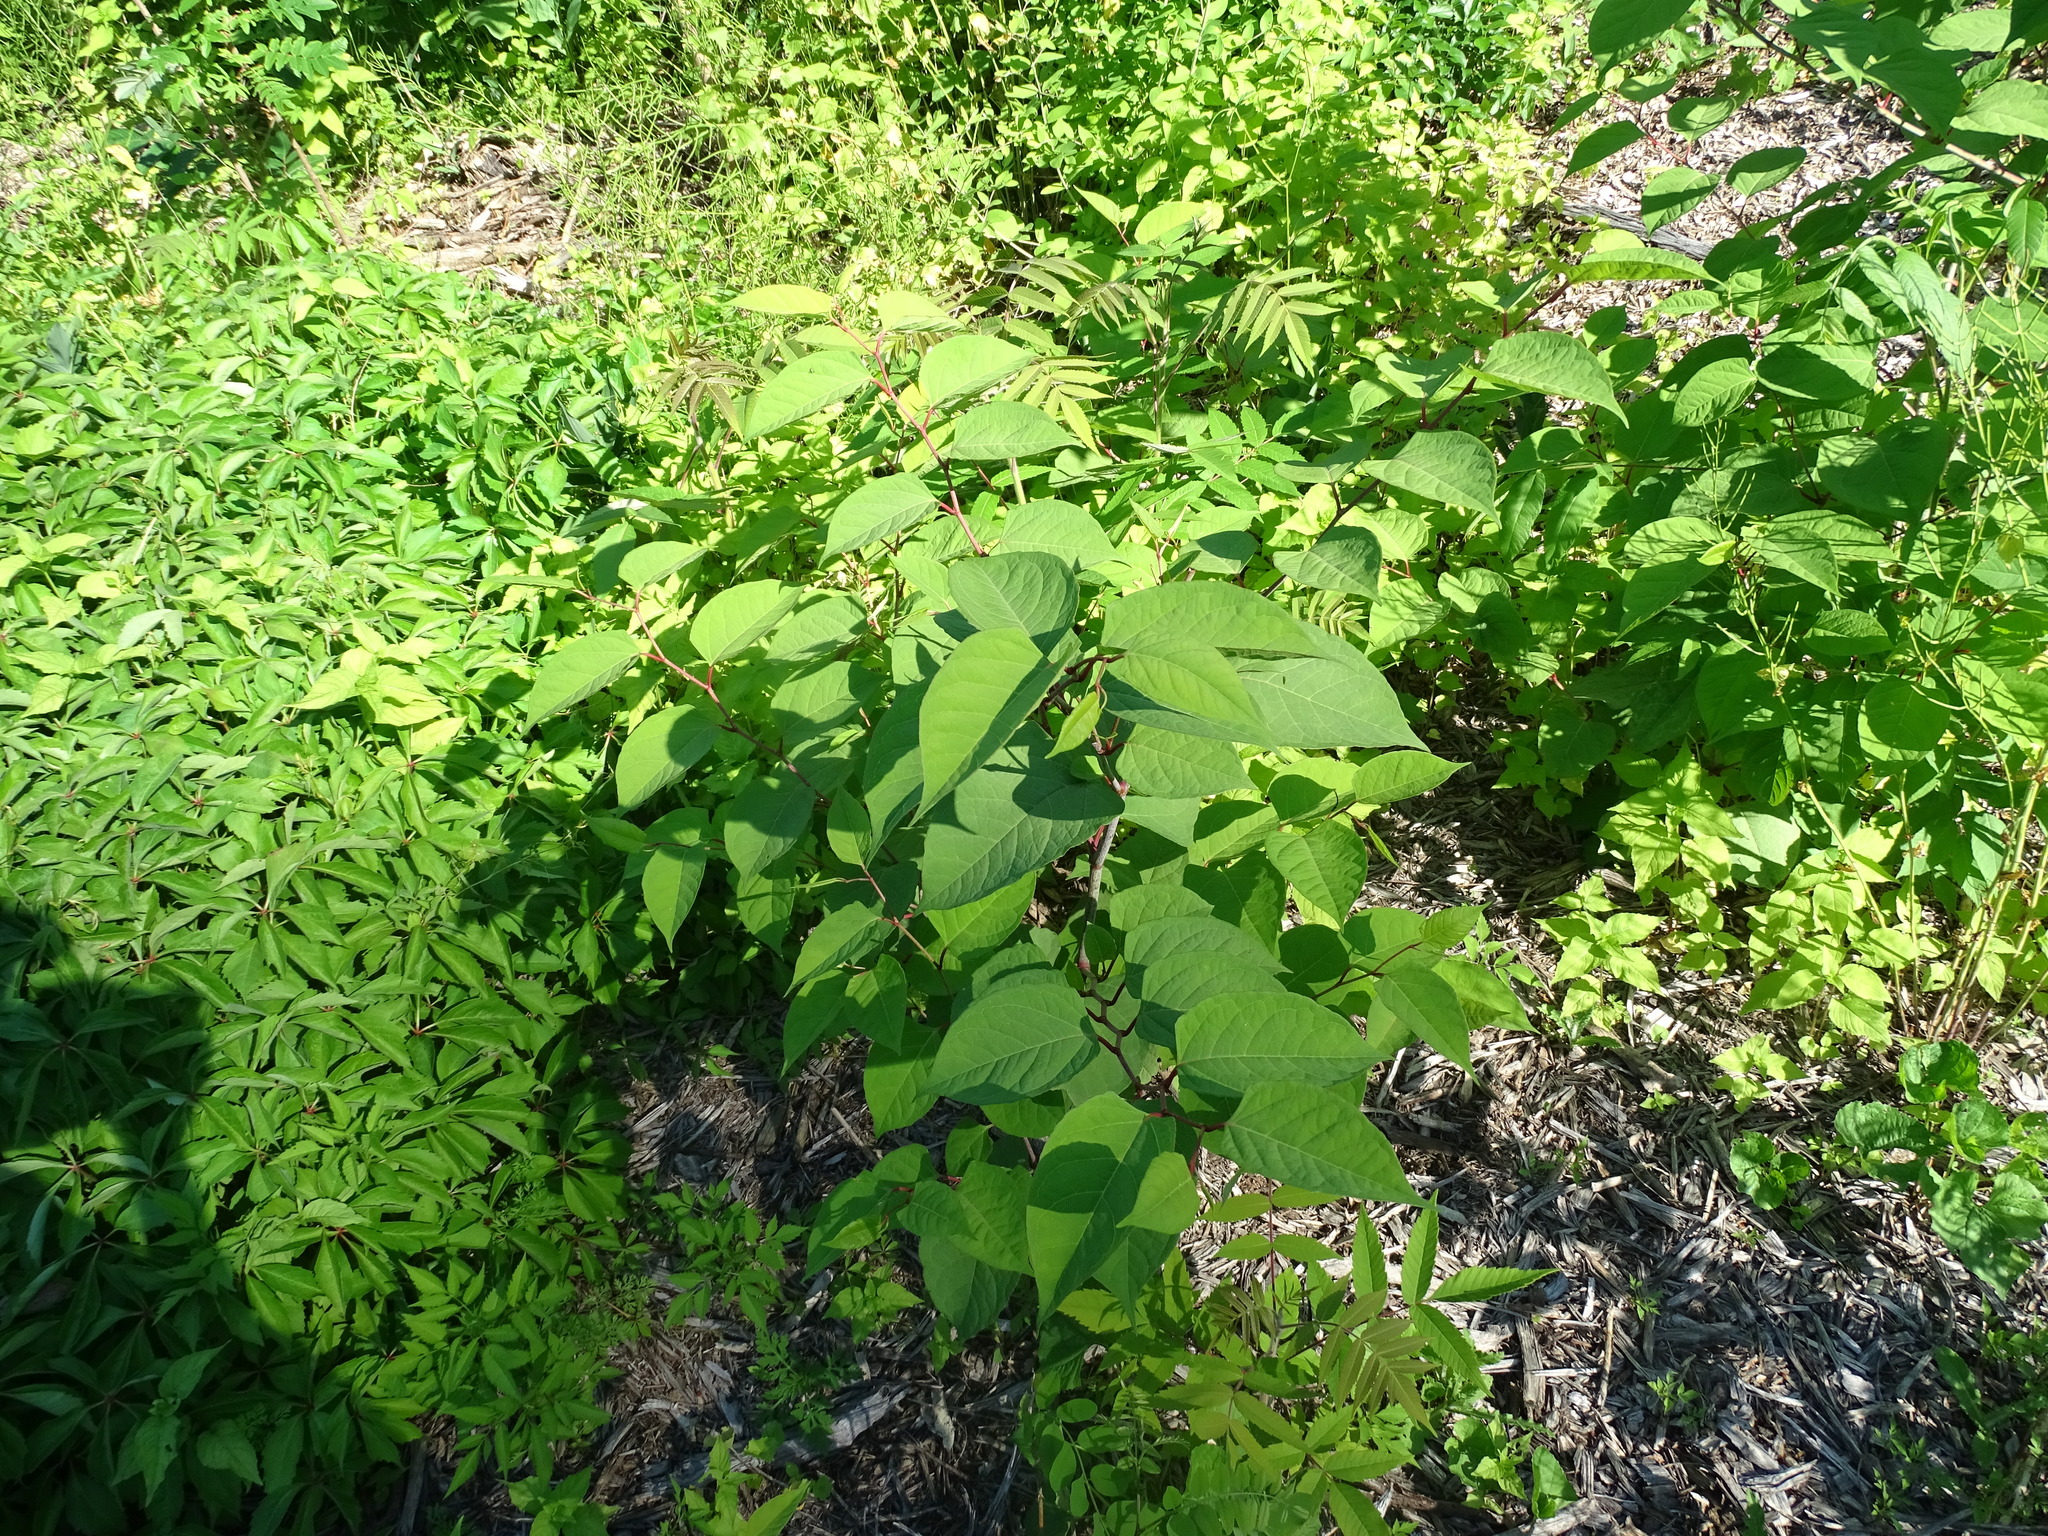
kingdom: Plantae
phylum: Tracheophyta
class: Magnoliopsida
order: Caryophyllales
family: Polygonaceae
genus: Reynoutria
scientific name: Reynoutria japonica
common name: Japanese knotweed
